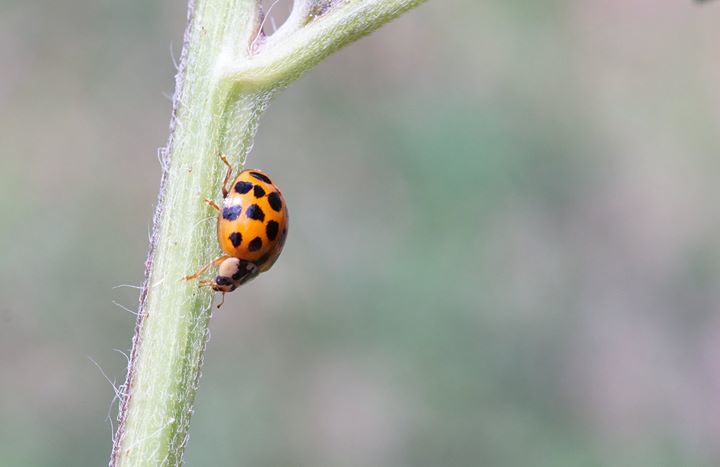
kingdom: Animalia
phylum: Arthropoda
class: Insecta
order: Coleoptera
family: Coccinellidae
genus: Harmonia
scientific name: Harmonia axyridis
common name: Harlequin ladybird
